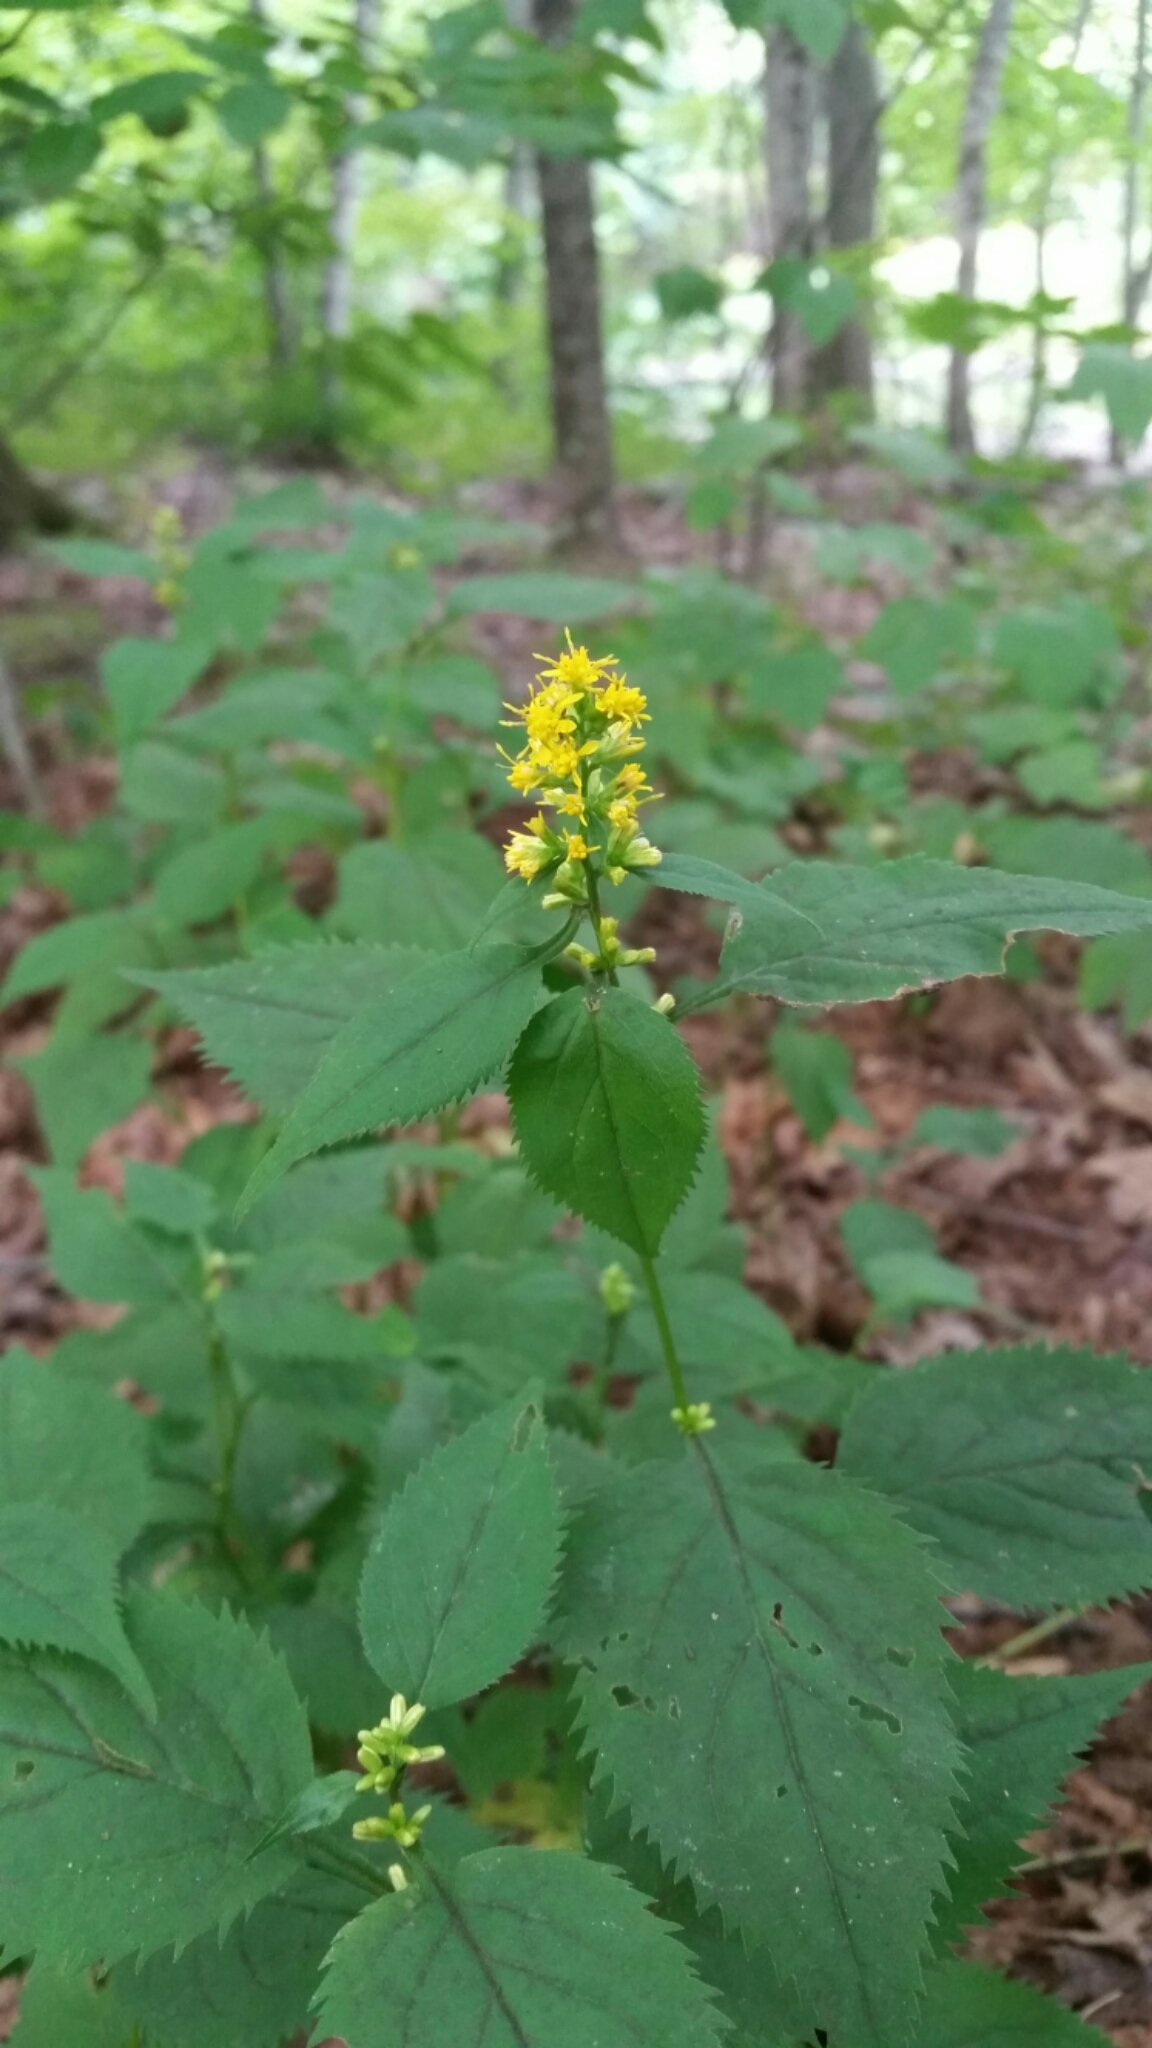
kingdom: Plantae
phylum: Tracheophyta
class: Magnoliopsida
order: Asterales
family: Asteraceae
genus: Solidago
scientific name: Solidago flexicaulis
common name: Zig-zag goldenrod
